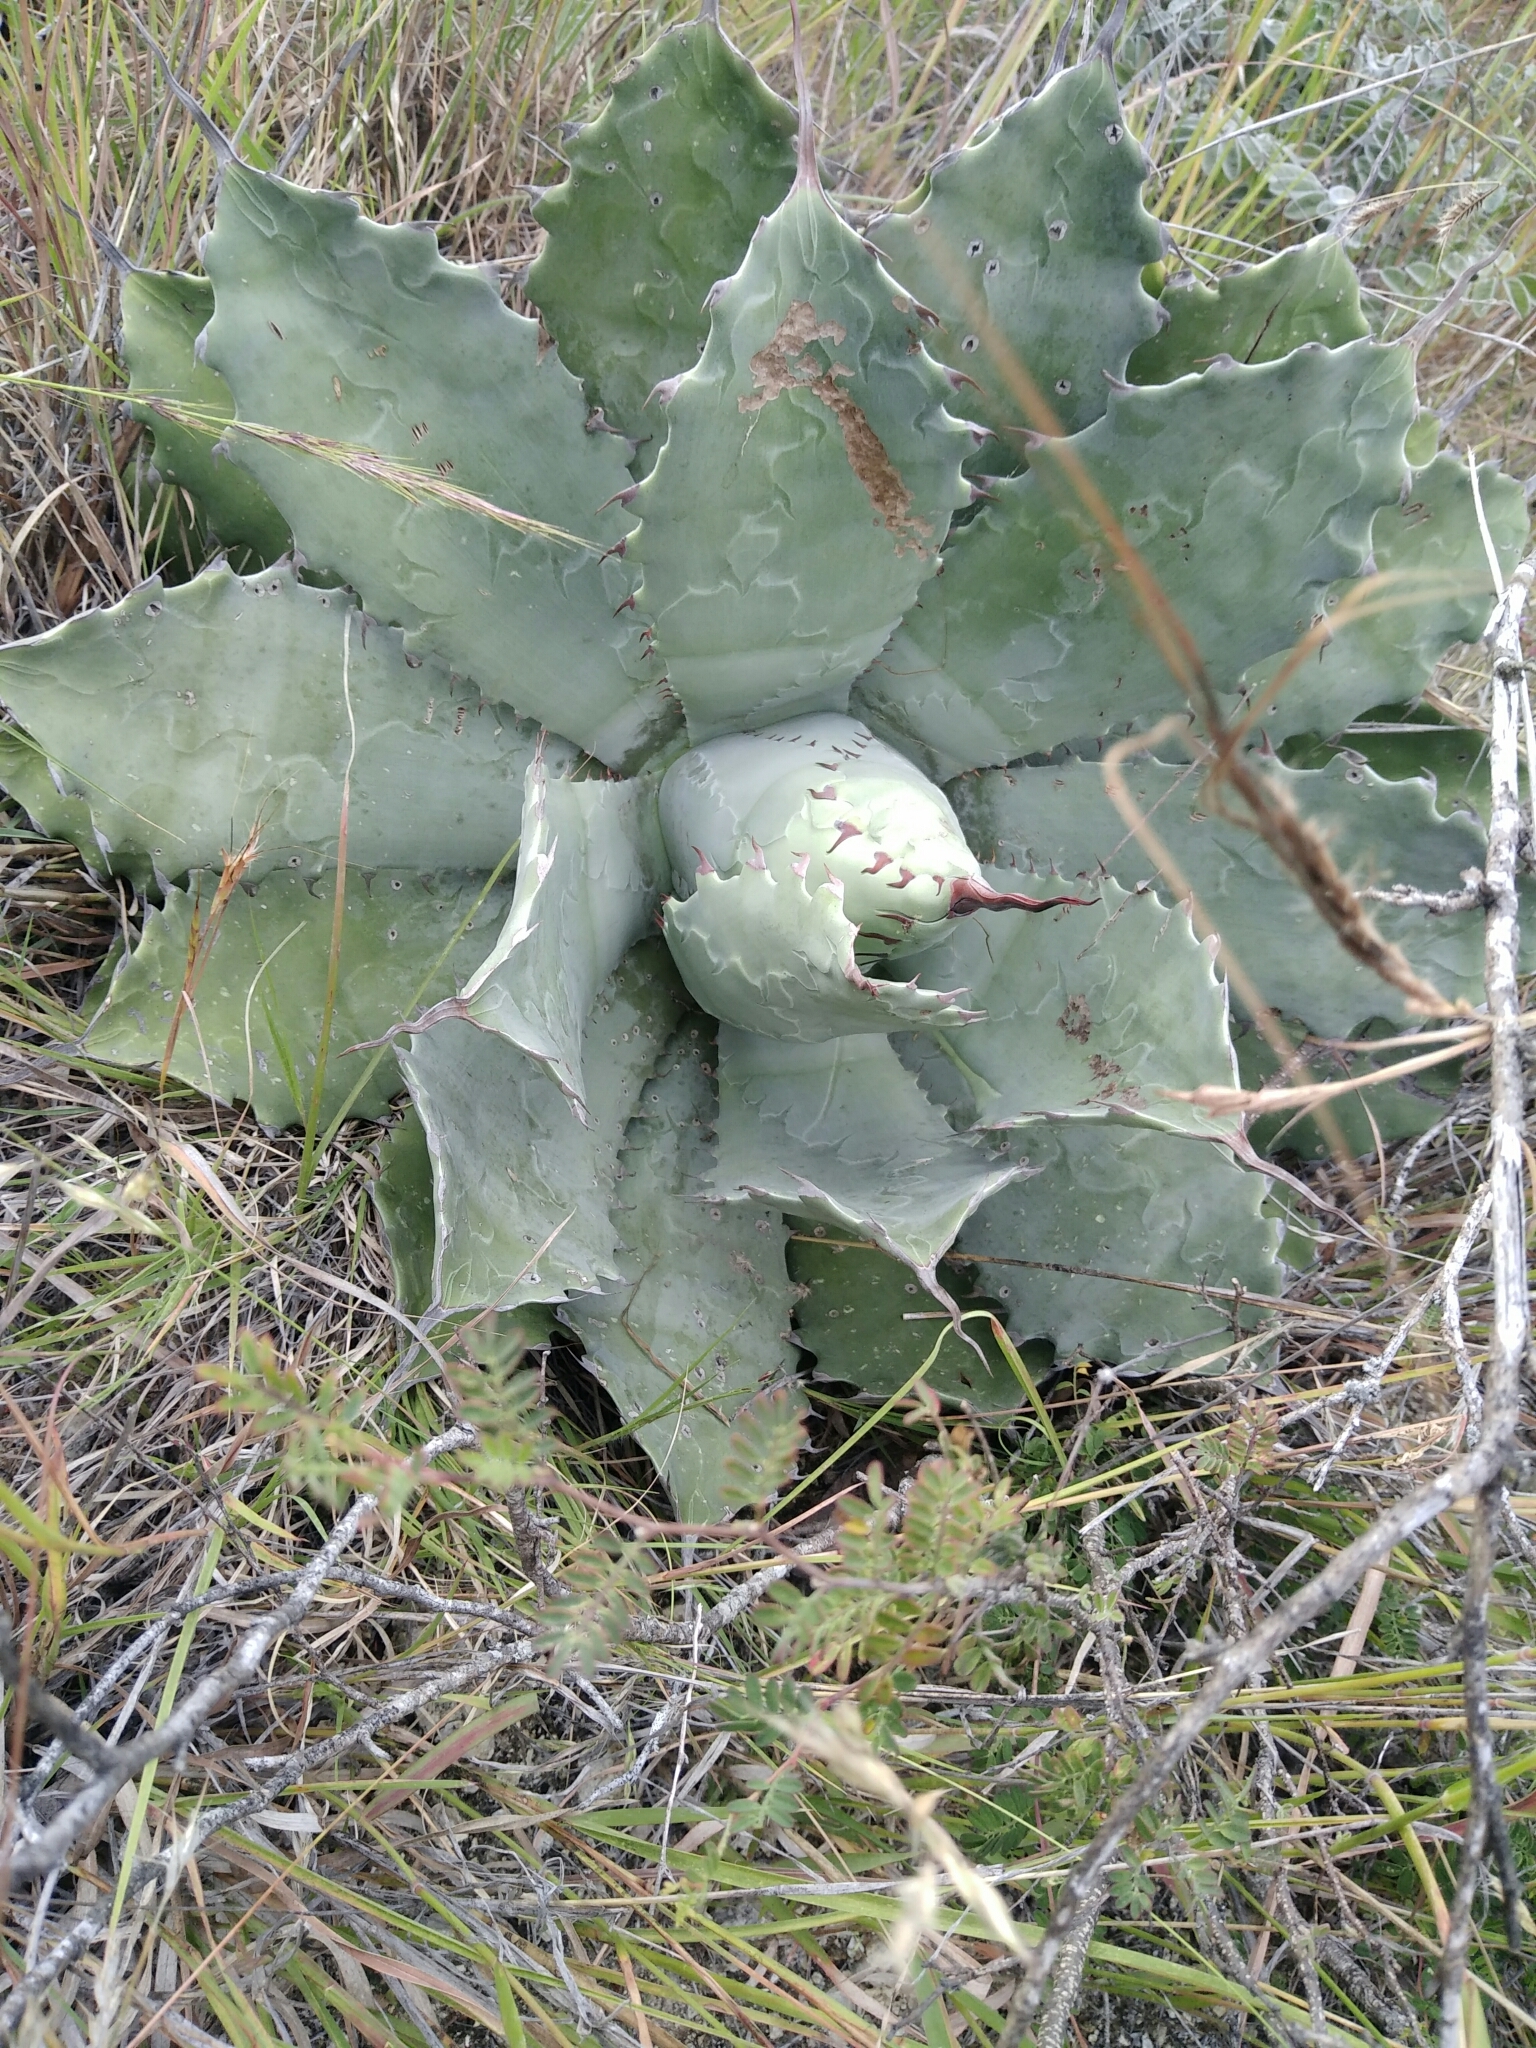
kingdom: Plantae
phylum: Tracheophyta
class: Liliopsida
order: Asparagales
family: Asparagaceae
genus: Agave
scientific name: Agave potatorum
